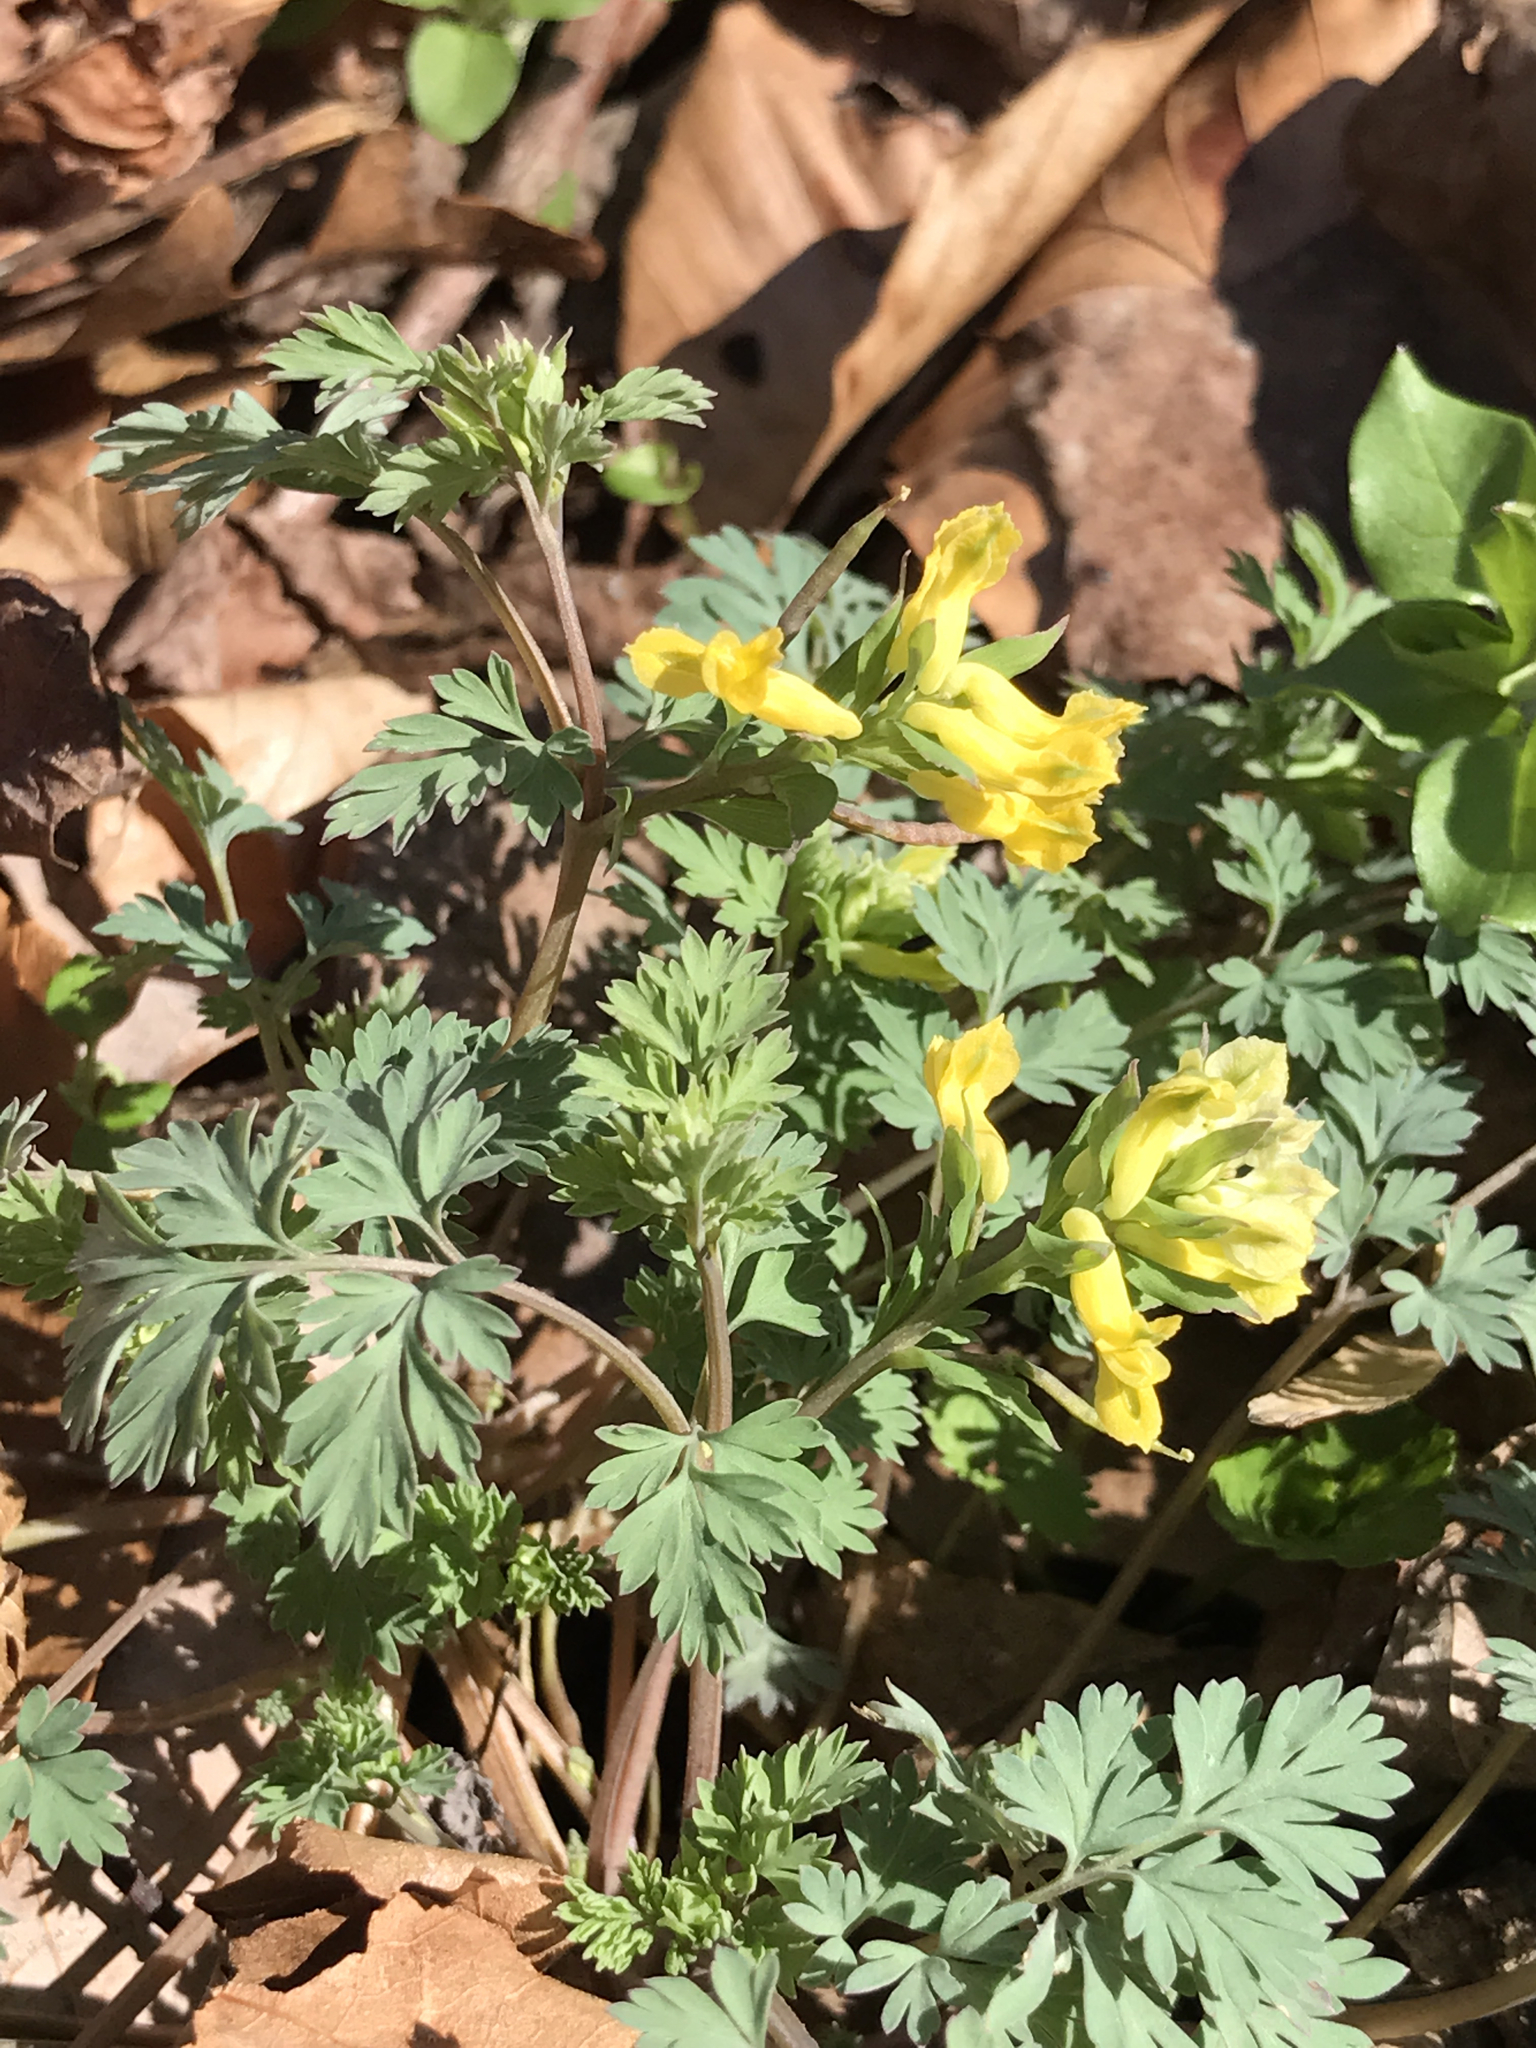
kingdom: Plantae
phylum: Tracheophyta
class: Magnoliopsida
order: Ranunculales
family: Papaveraceae
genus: Corydalis
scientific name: Corydalis flavula
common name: Yellow corydalis
